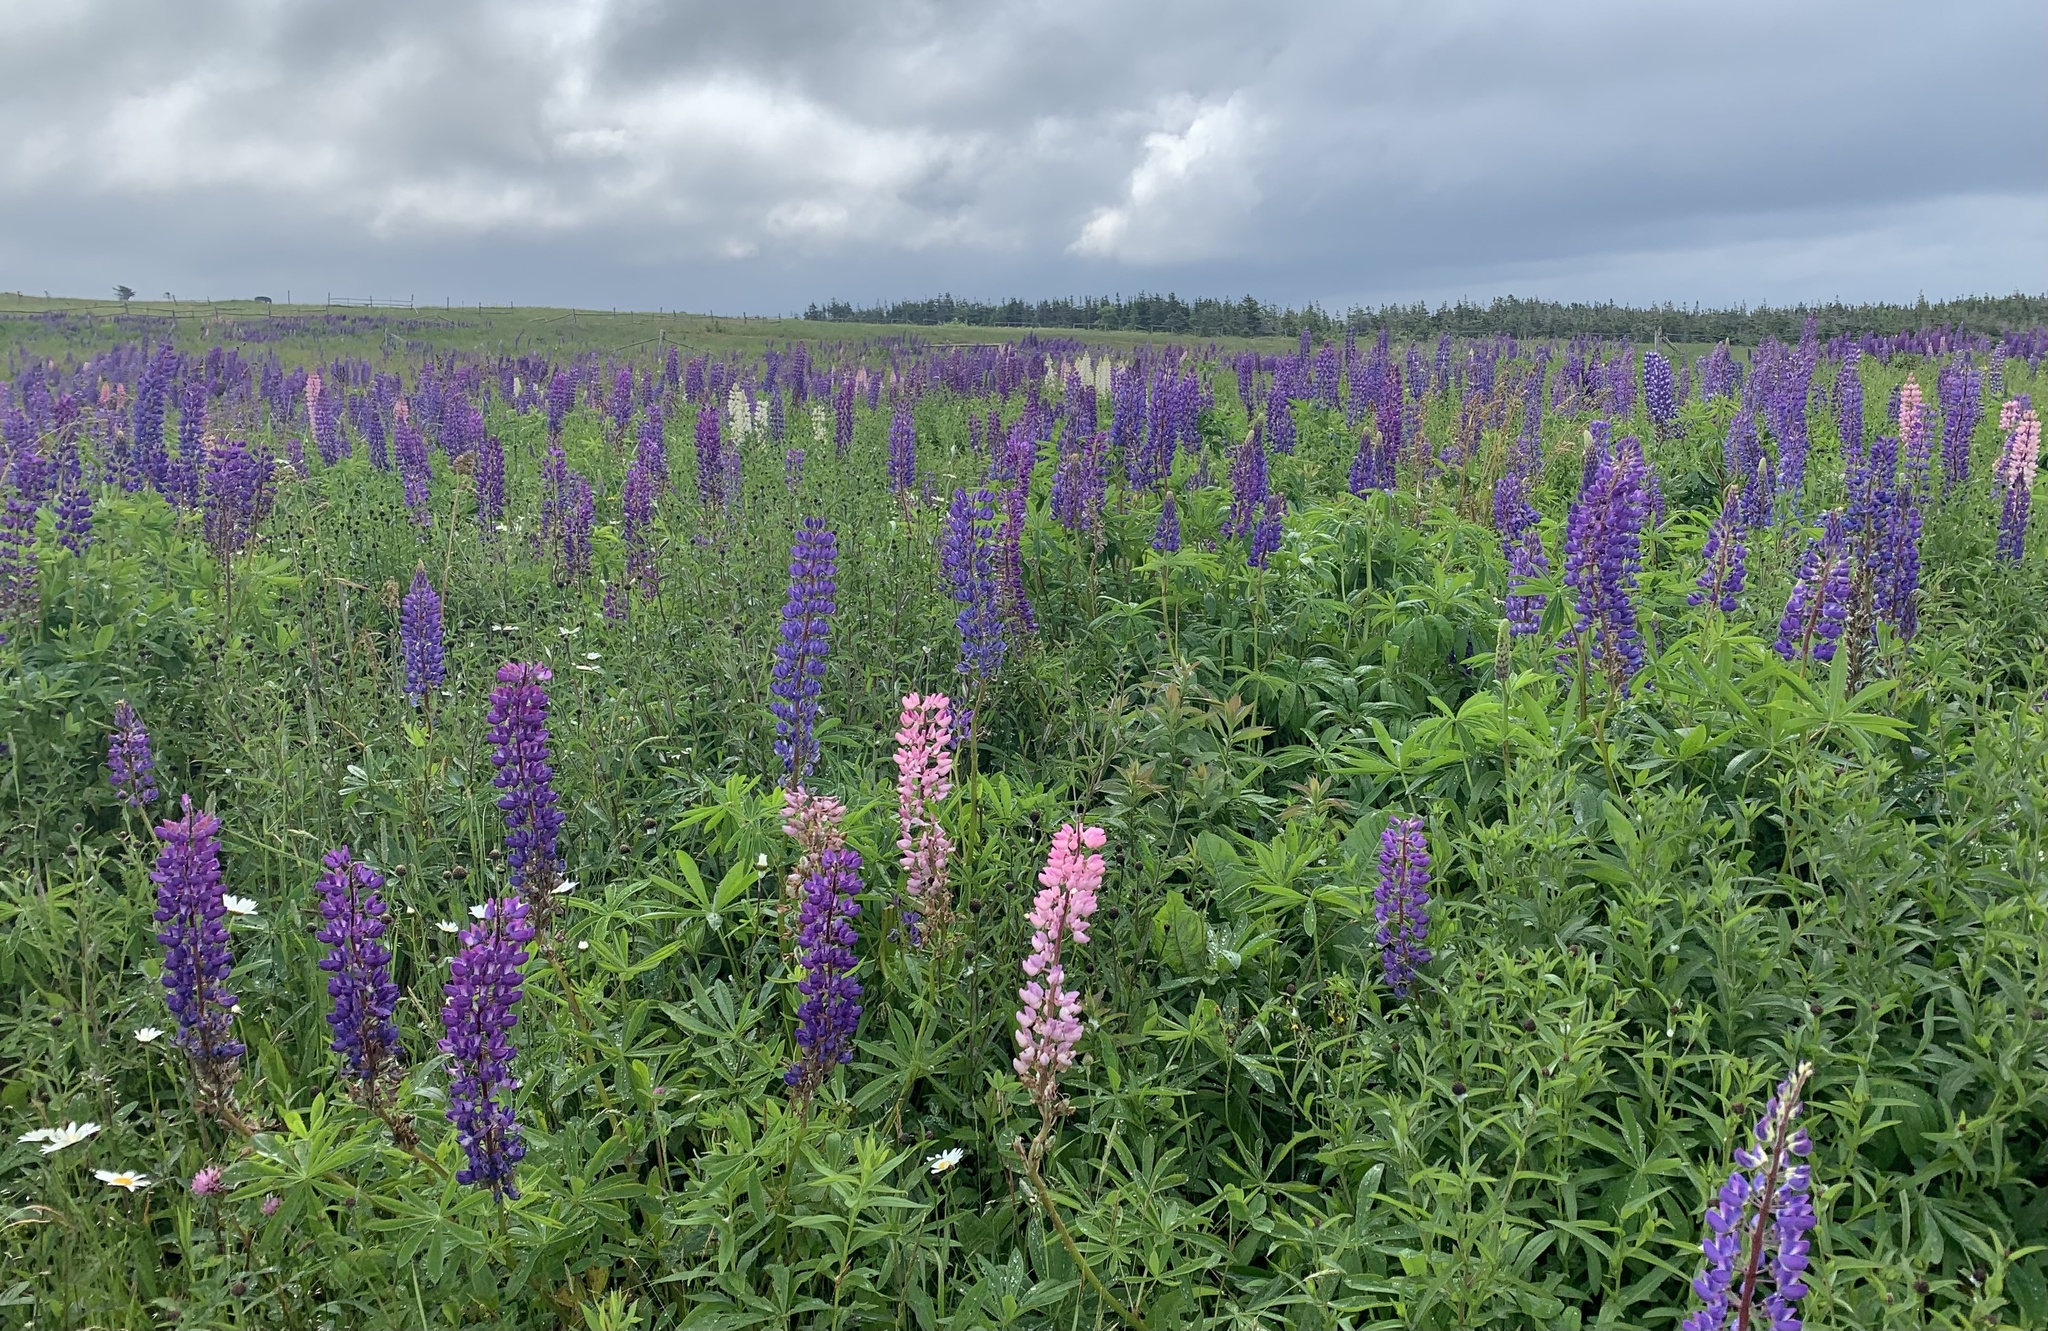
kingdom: Plantae
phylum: Tracheophyta
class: Magnoliopsida
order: Fabales
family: Fabaceae
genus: Lupinus
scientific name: Lupinus polyphyllus
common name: Garden lupin
